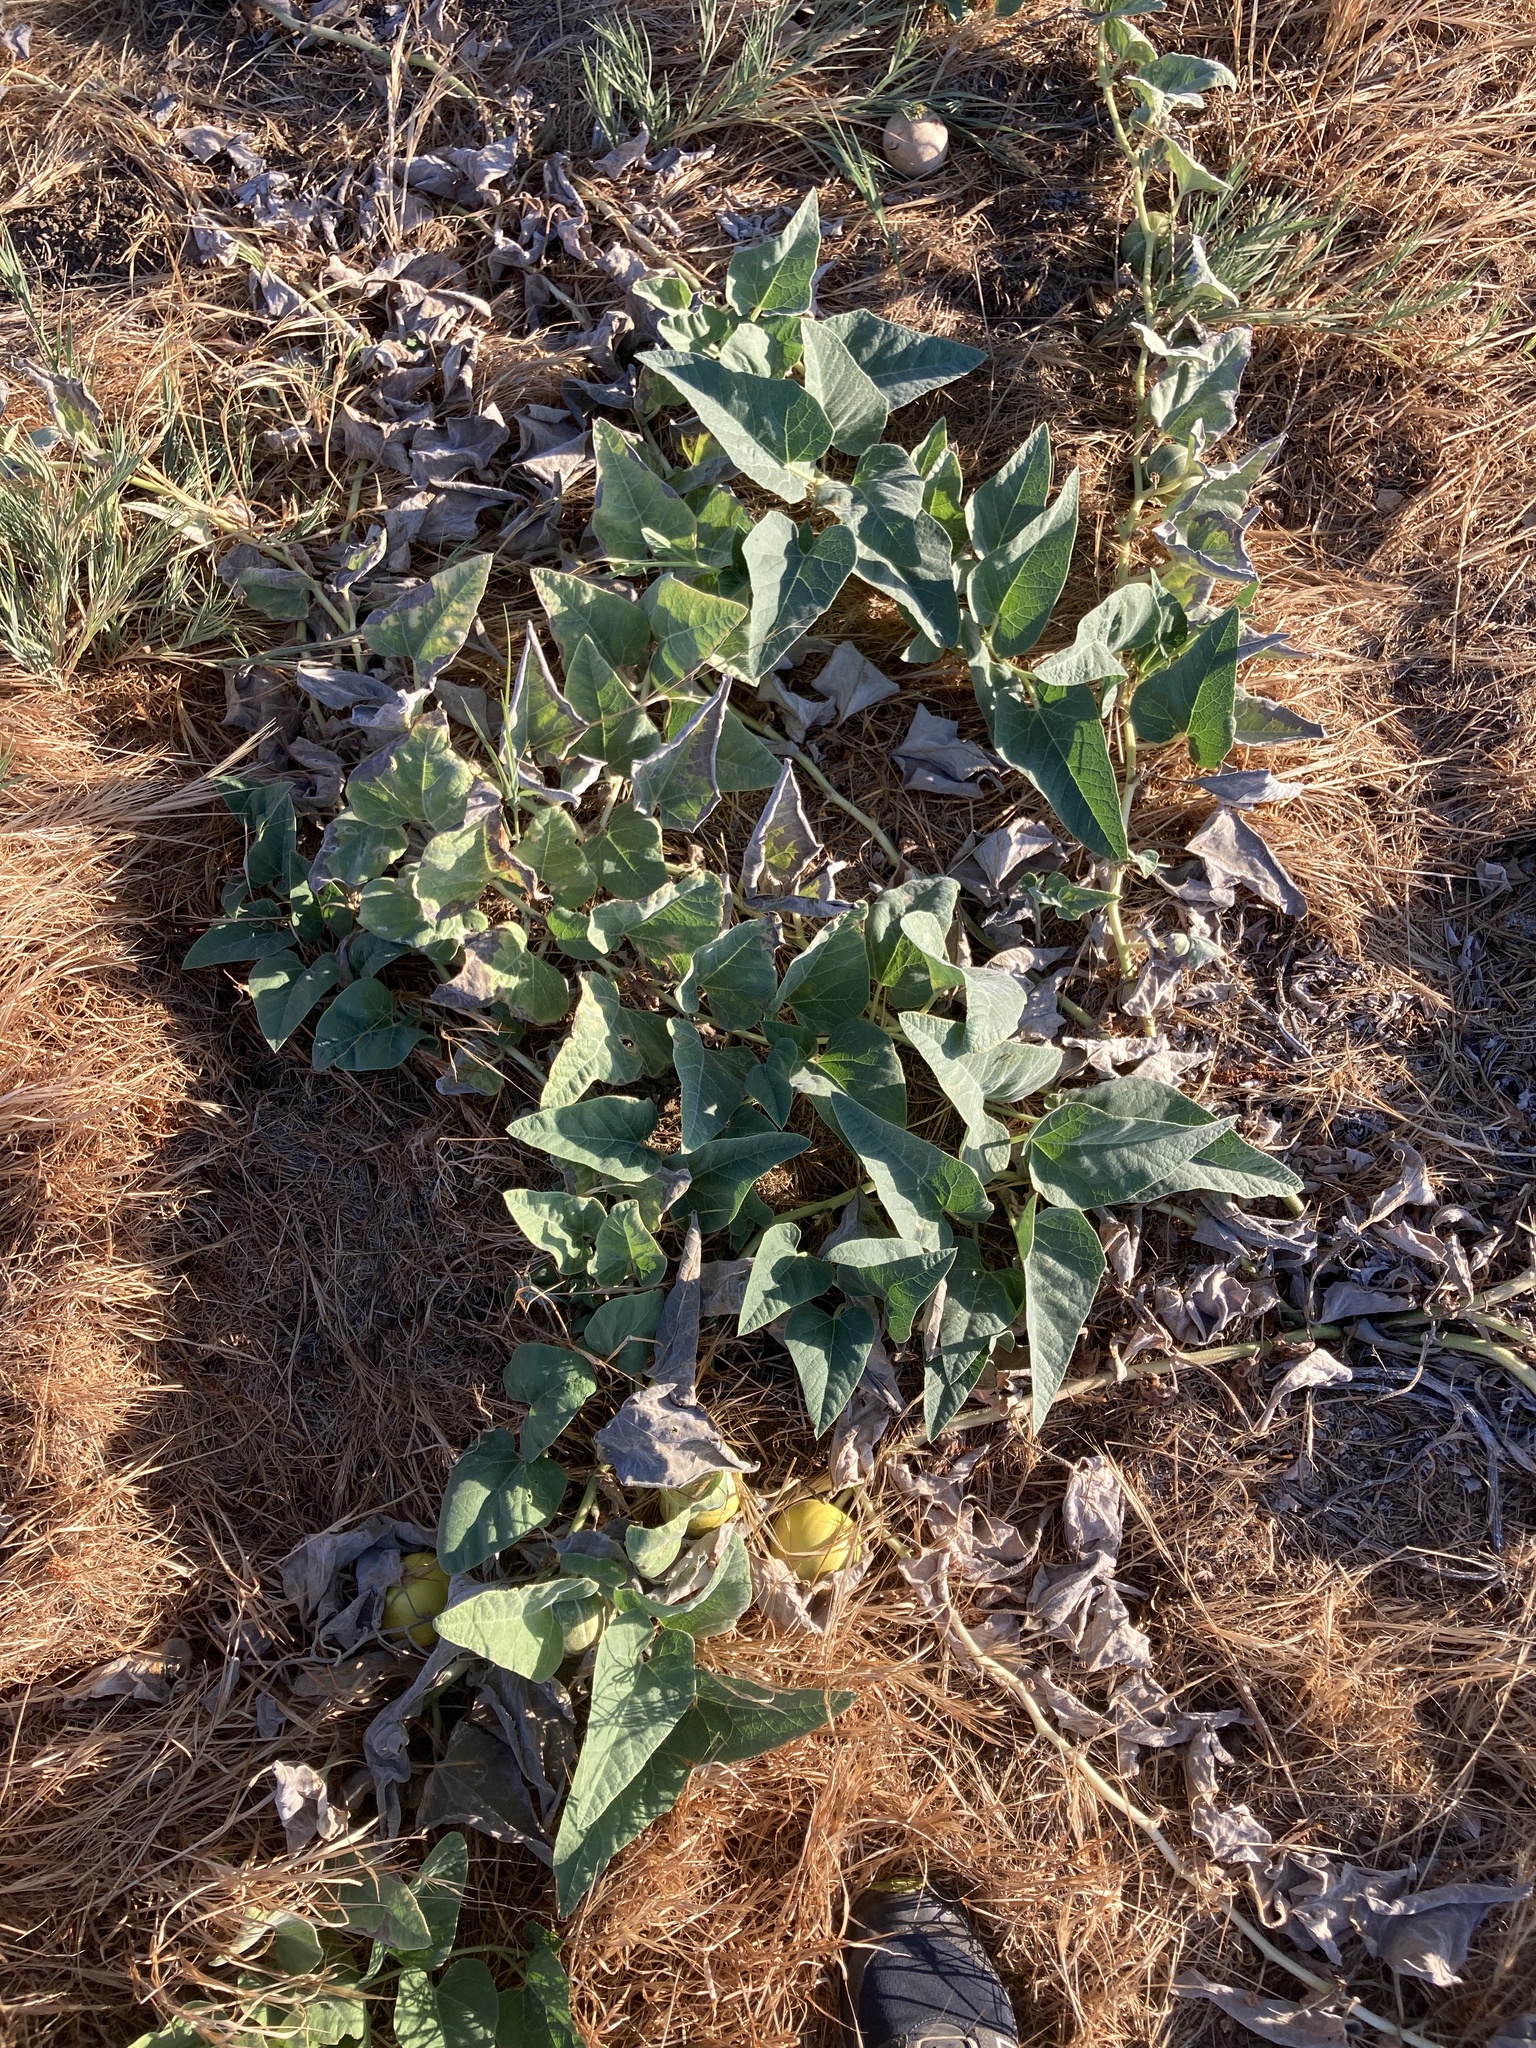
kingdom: Plantae
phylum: Tracheophyta
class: Magnoliopsida
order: Cucurbitales
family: Cucurbitaceae
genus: Cucurbita
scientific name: Cucurbita foetidissima
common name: Buffalo gourd
